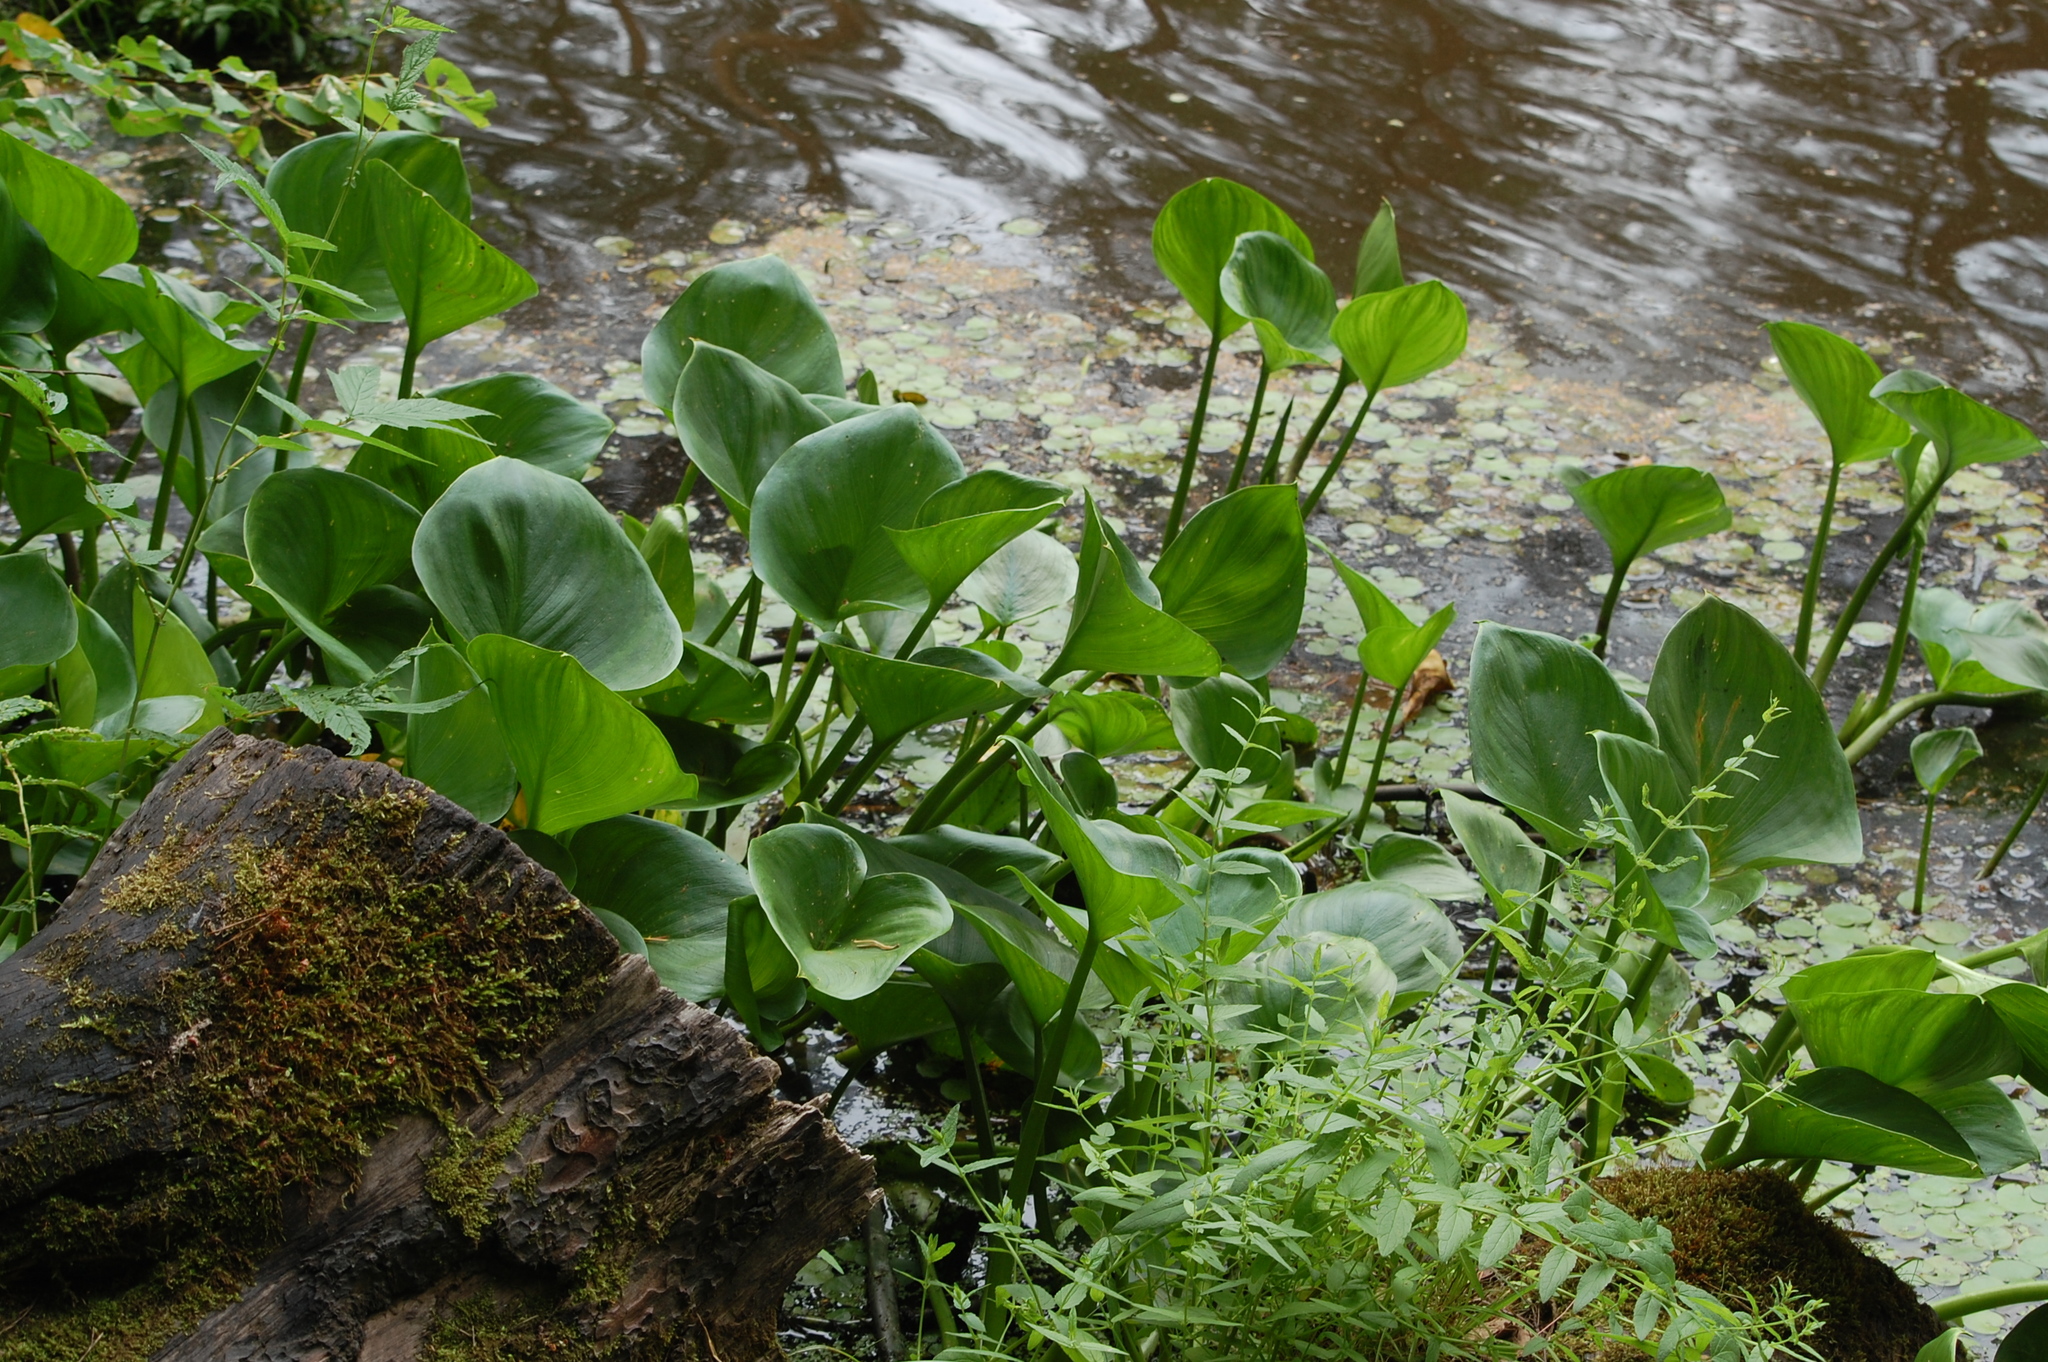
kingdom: Plantae
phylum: Tracheophyta
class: Liliopsida
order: Alismatales
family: Araceae
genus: Calla
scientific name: Calla palustris
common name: Bog arum
